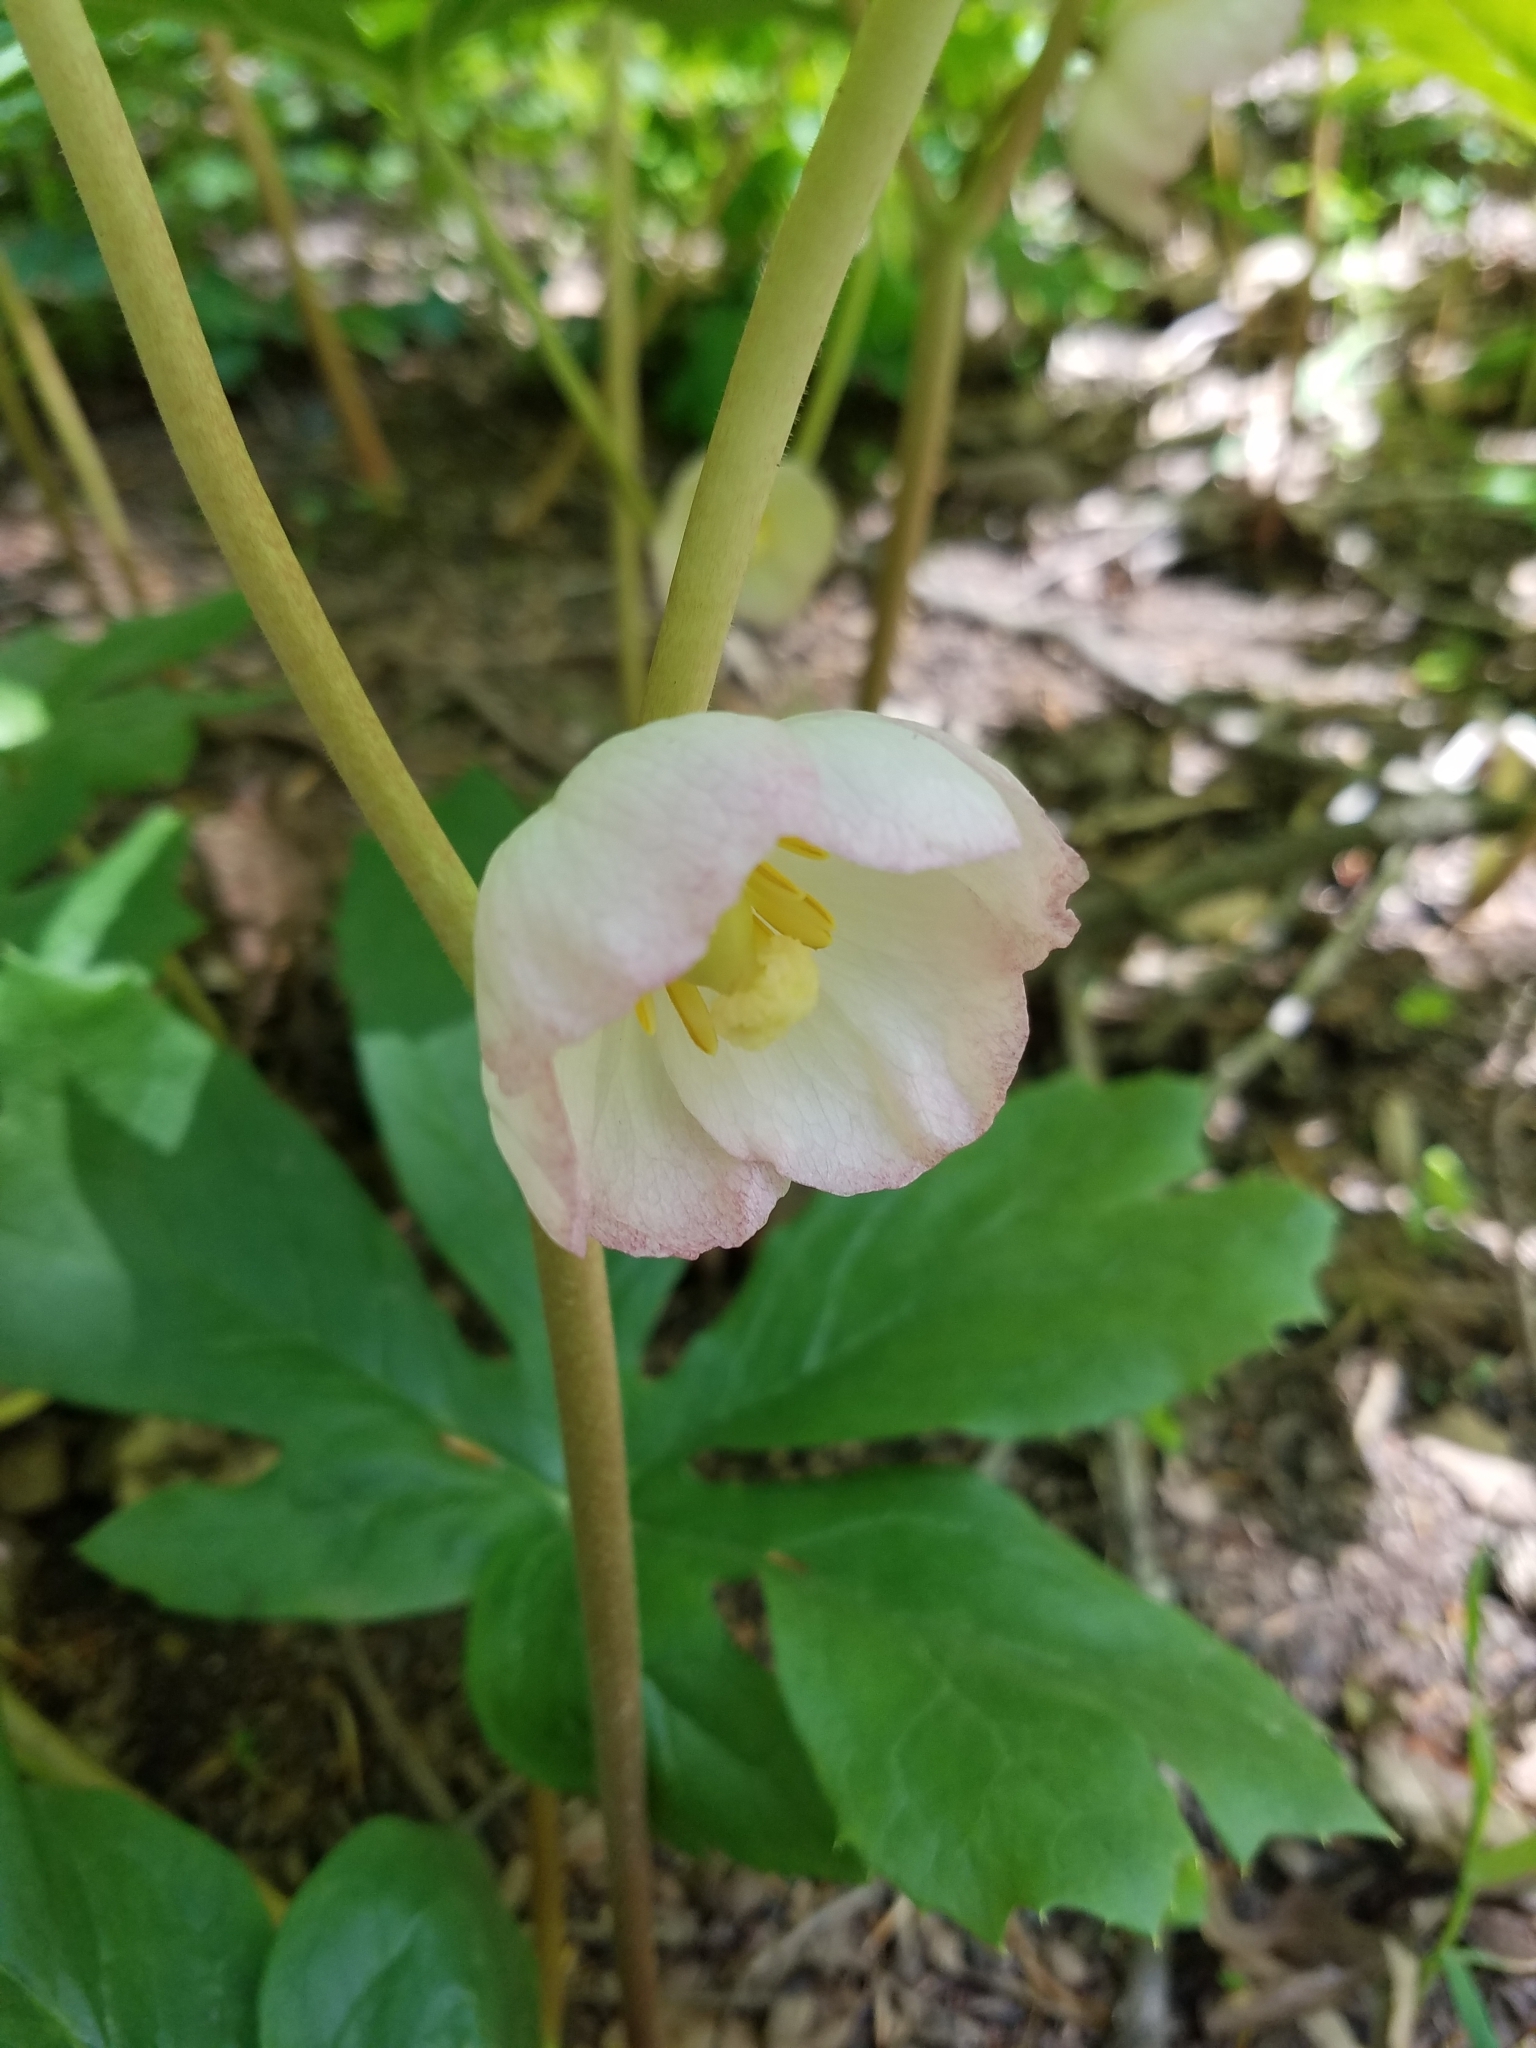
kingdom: Plantae
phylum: Tracheophyta
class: Magnoliopsida
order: Ranunculales
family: Berberidaceae
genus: Podophyllum
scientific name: Podophyllum peltatum
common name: Wild mandrake
